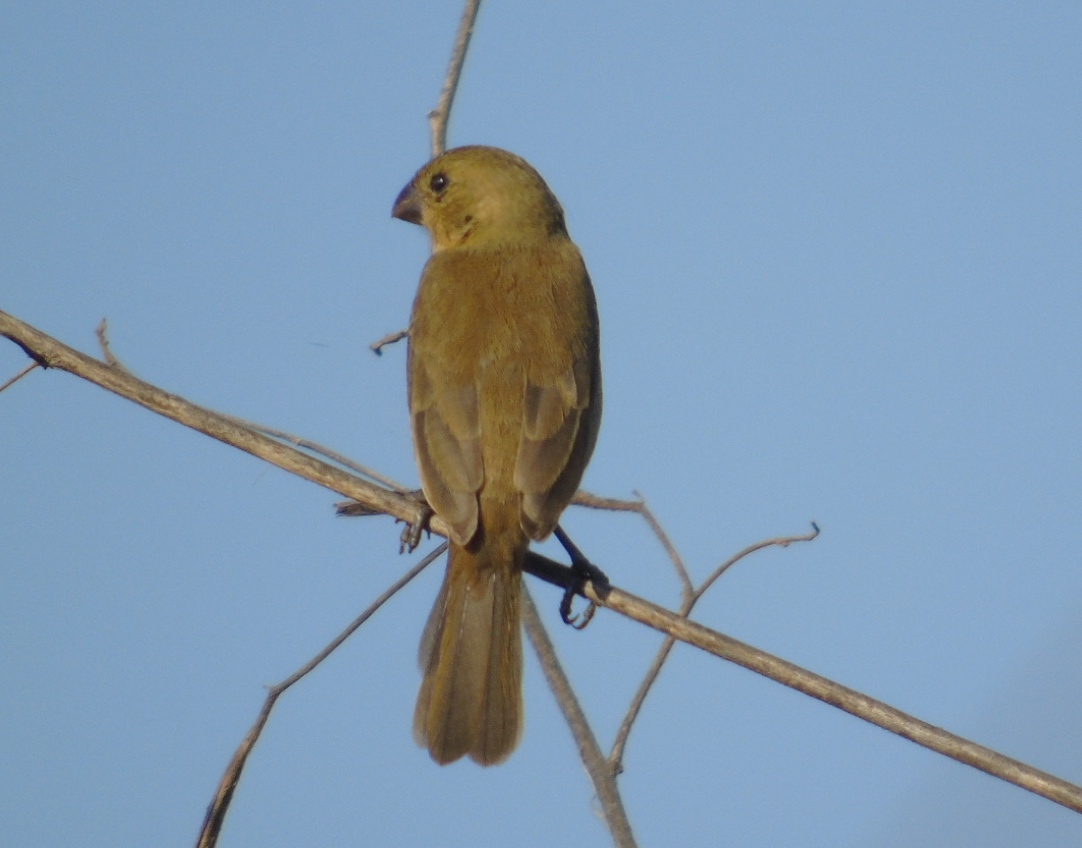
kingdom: Animalia
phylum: Chordata
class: Aves
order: Passeriformes
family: Thraupidae
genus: Sporophila
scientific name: Sporophila torqueola
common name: White-collared seedeater
